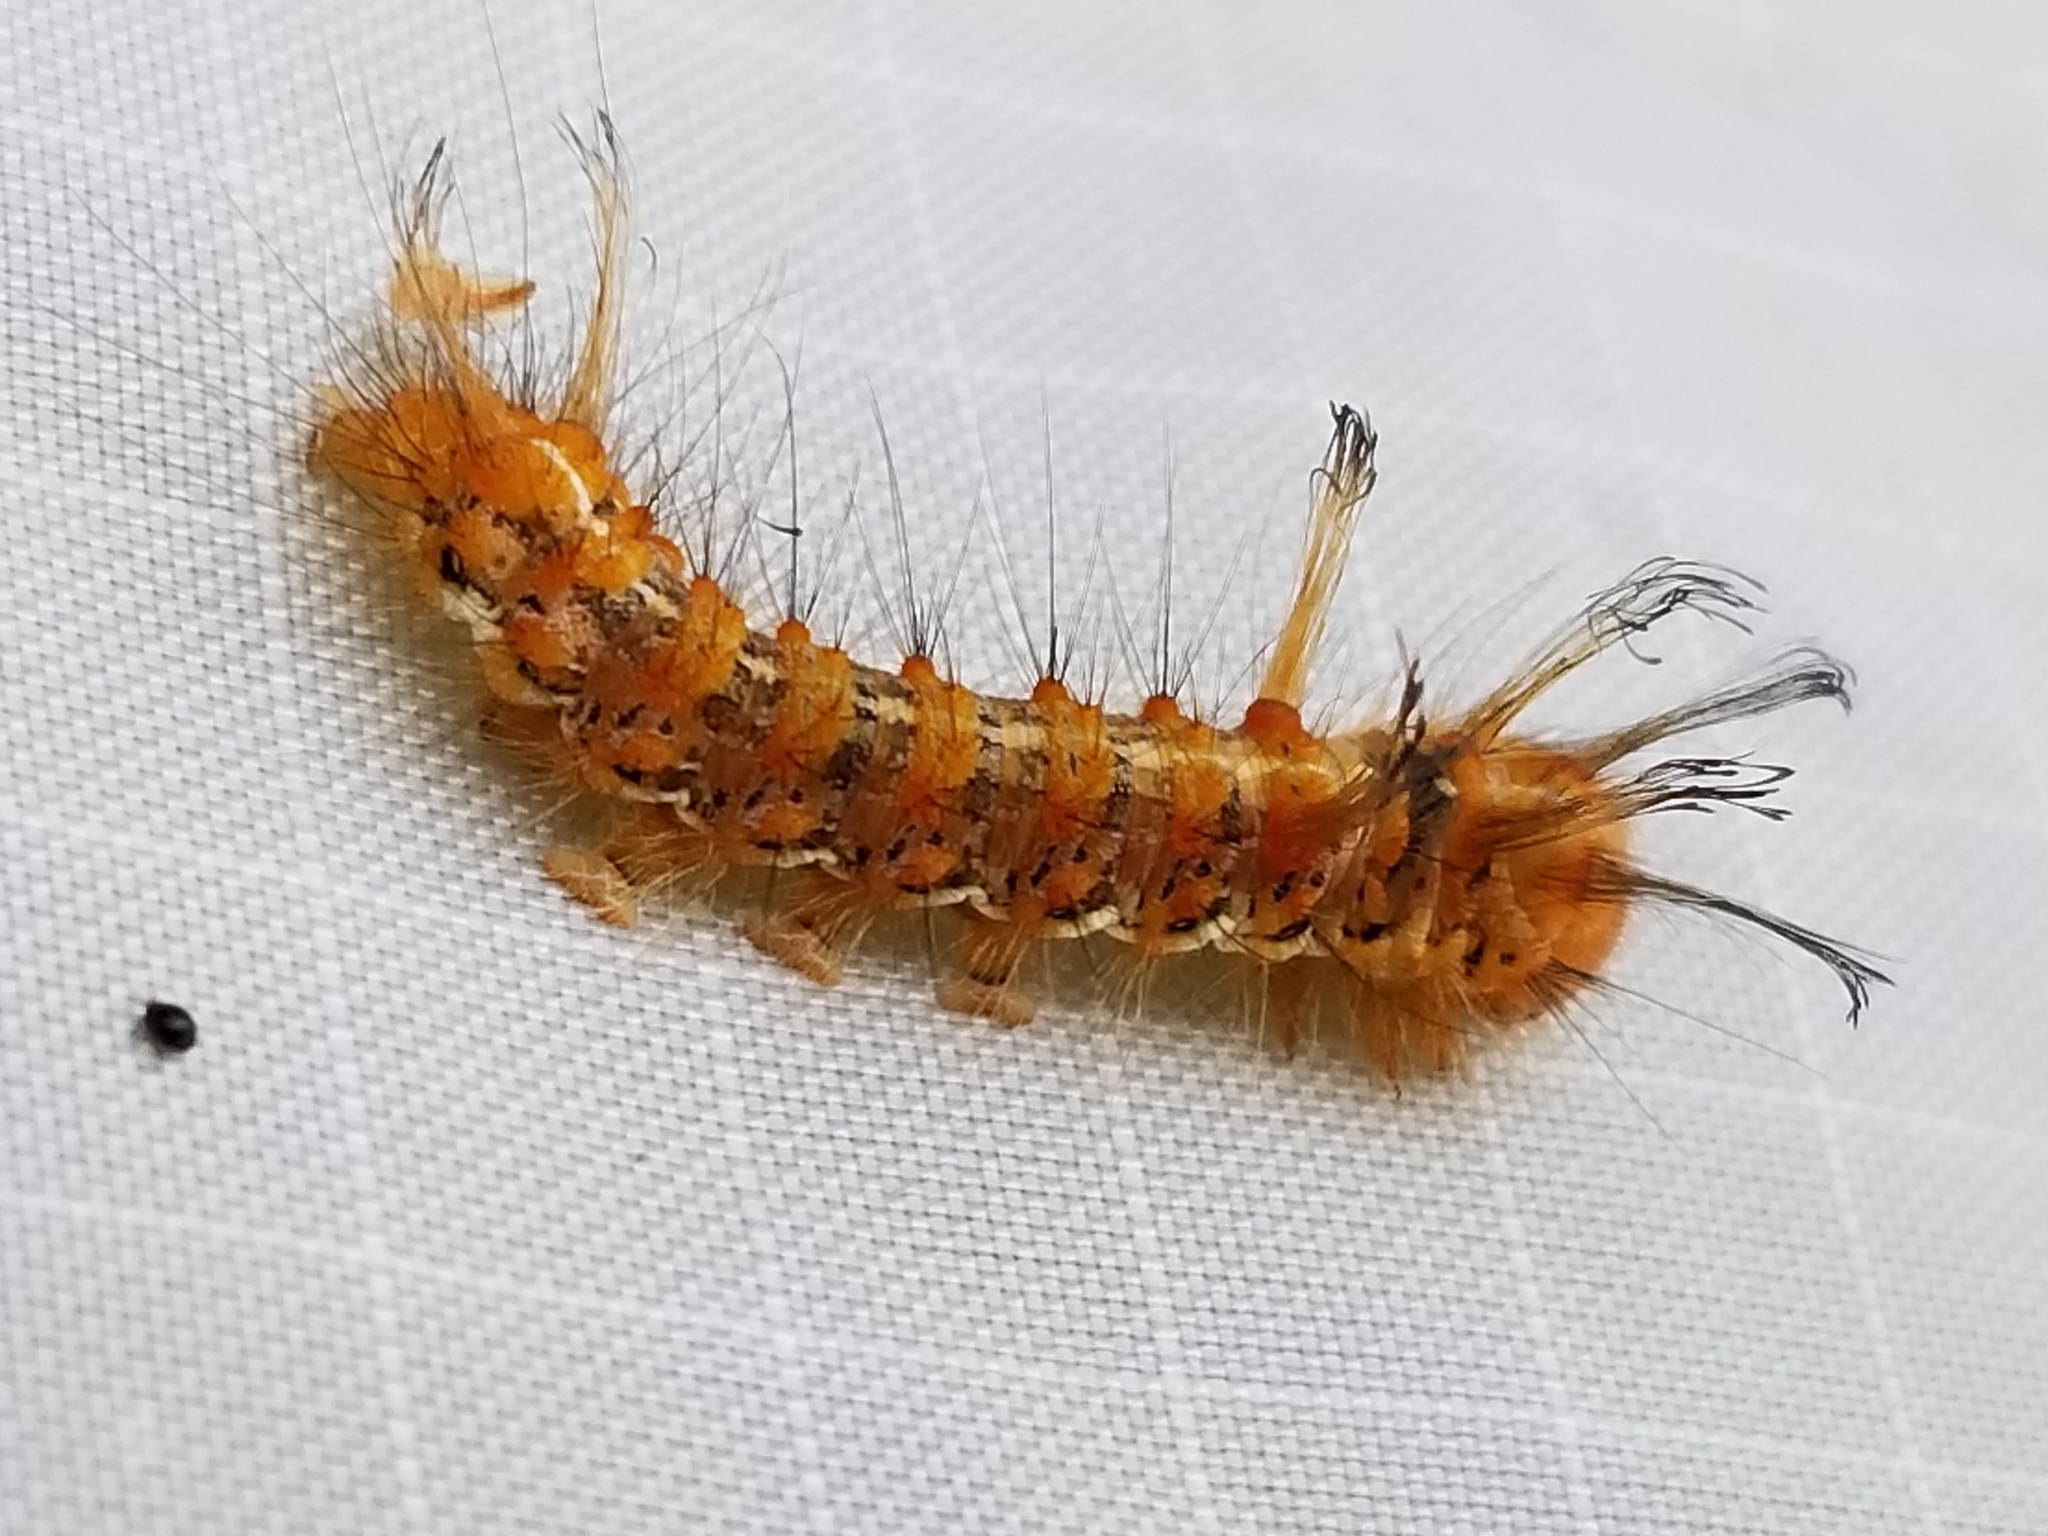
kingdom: Animalia
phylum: Arthropoda
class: Insecta
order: Lepidoptera
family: Noctuidae
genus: Panthea
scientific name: Panthea furcilla
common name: Eastern panthea moth
